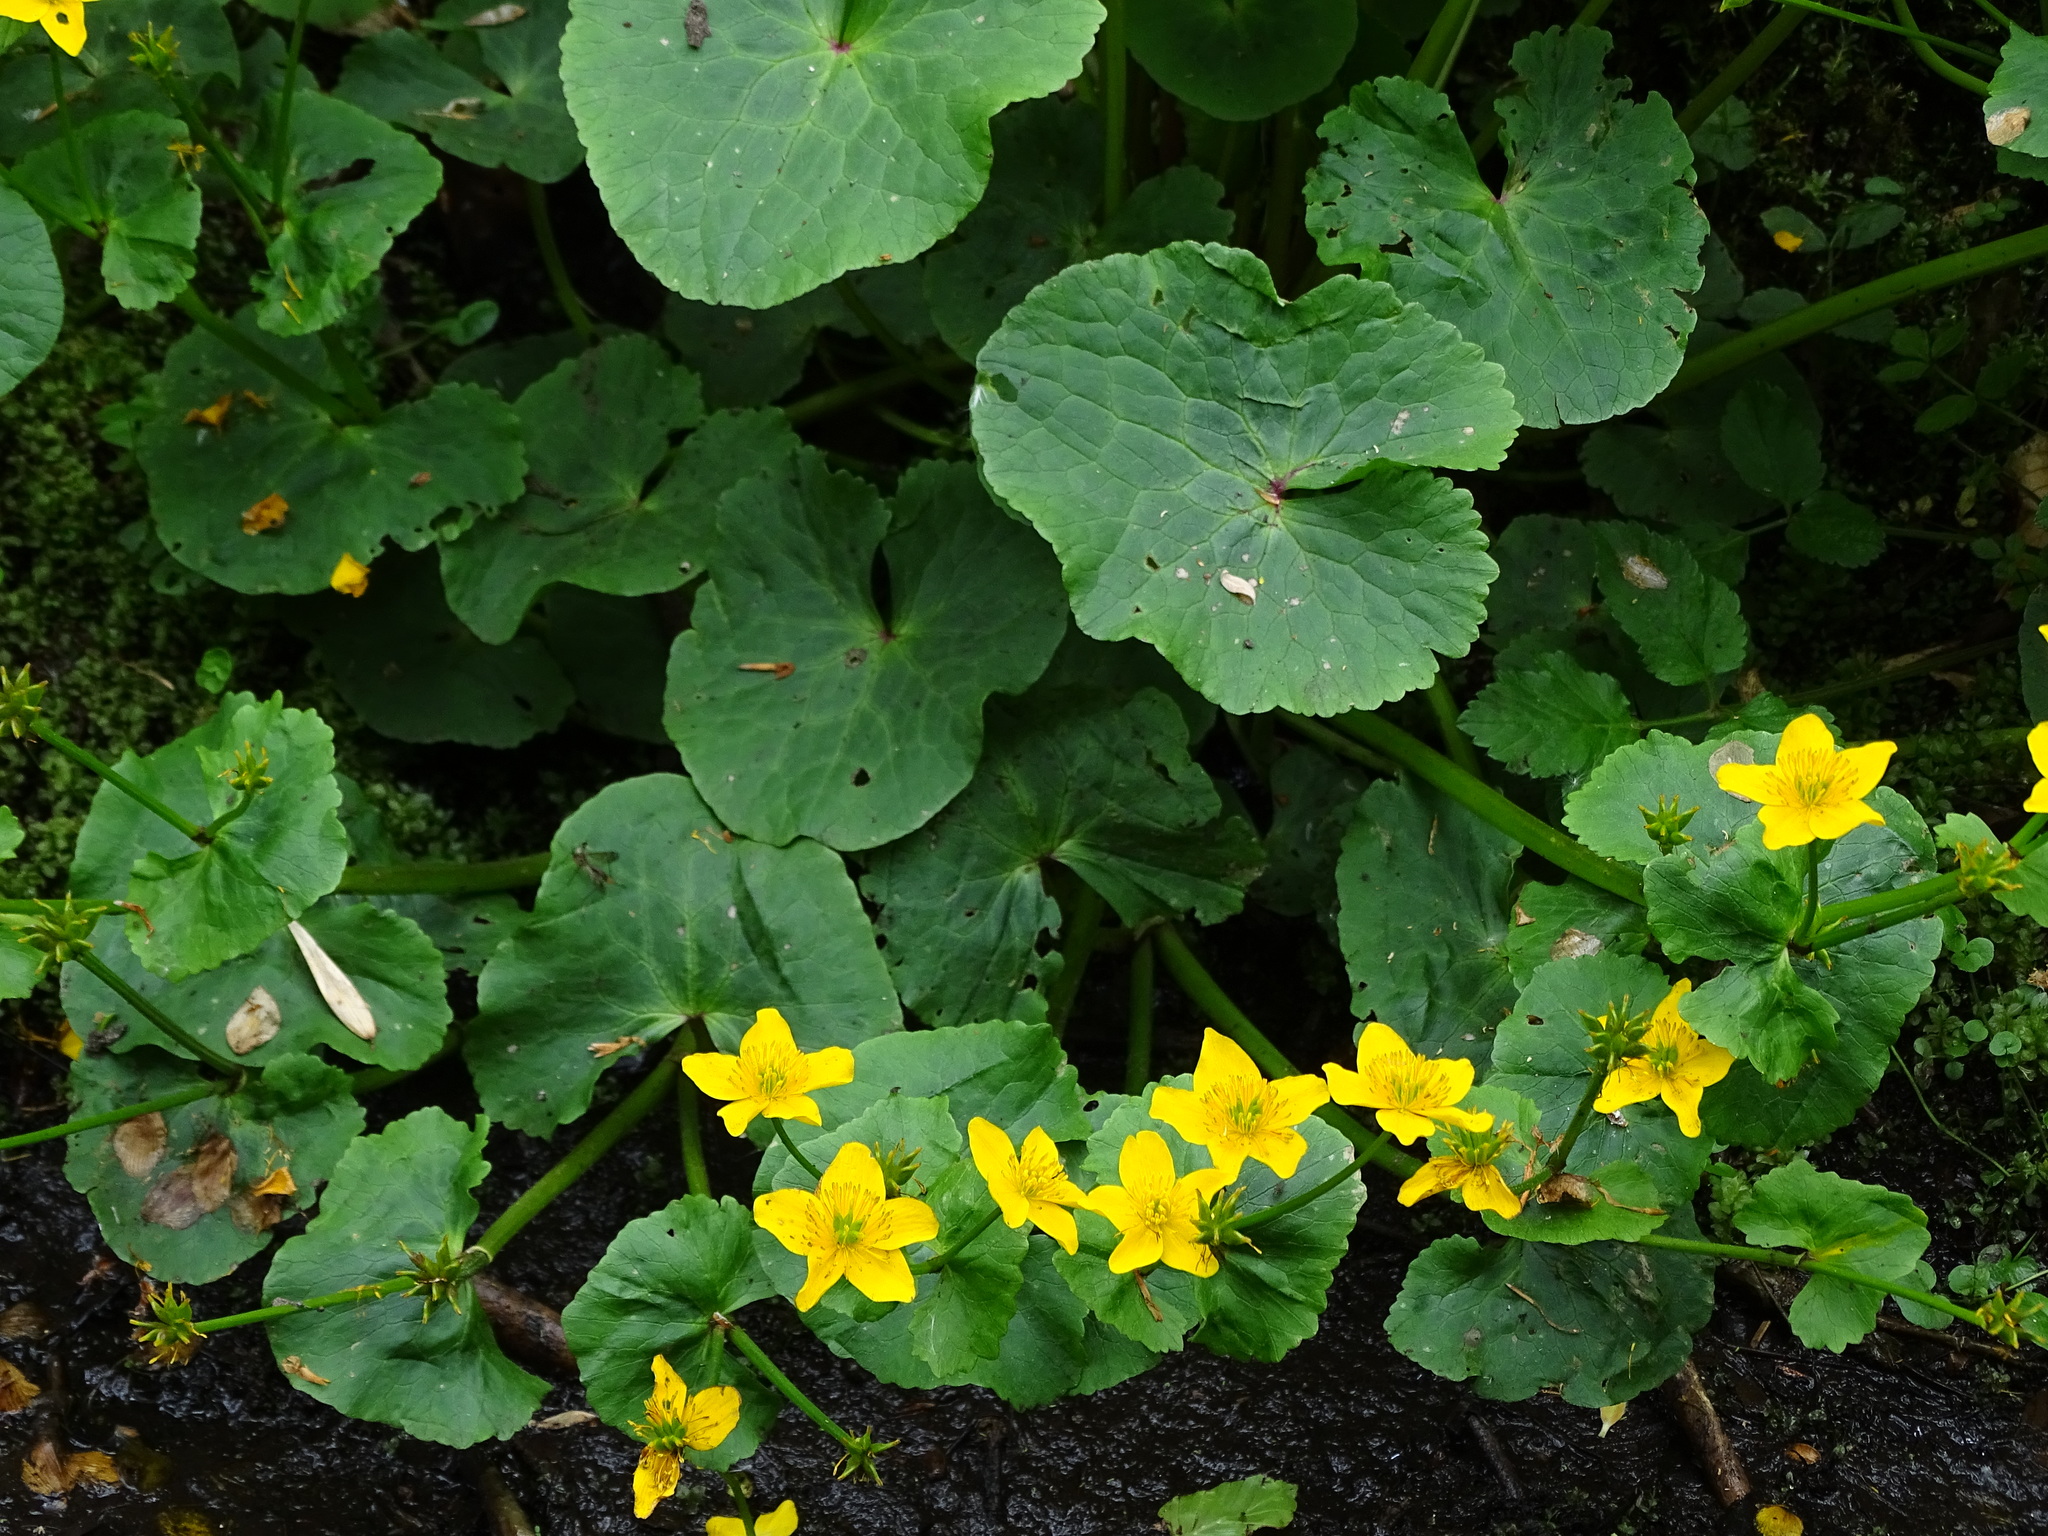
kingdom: Plantae
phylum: Tracheophyta
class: Magnoliopsida
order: Ranunculales
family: Ranunculaceae
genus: Caltha
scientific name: Caltha palustris
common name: Marsh marigold
